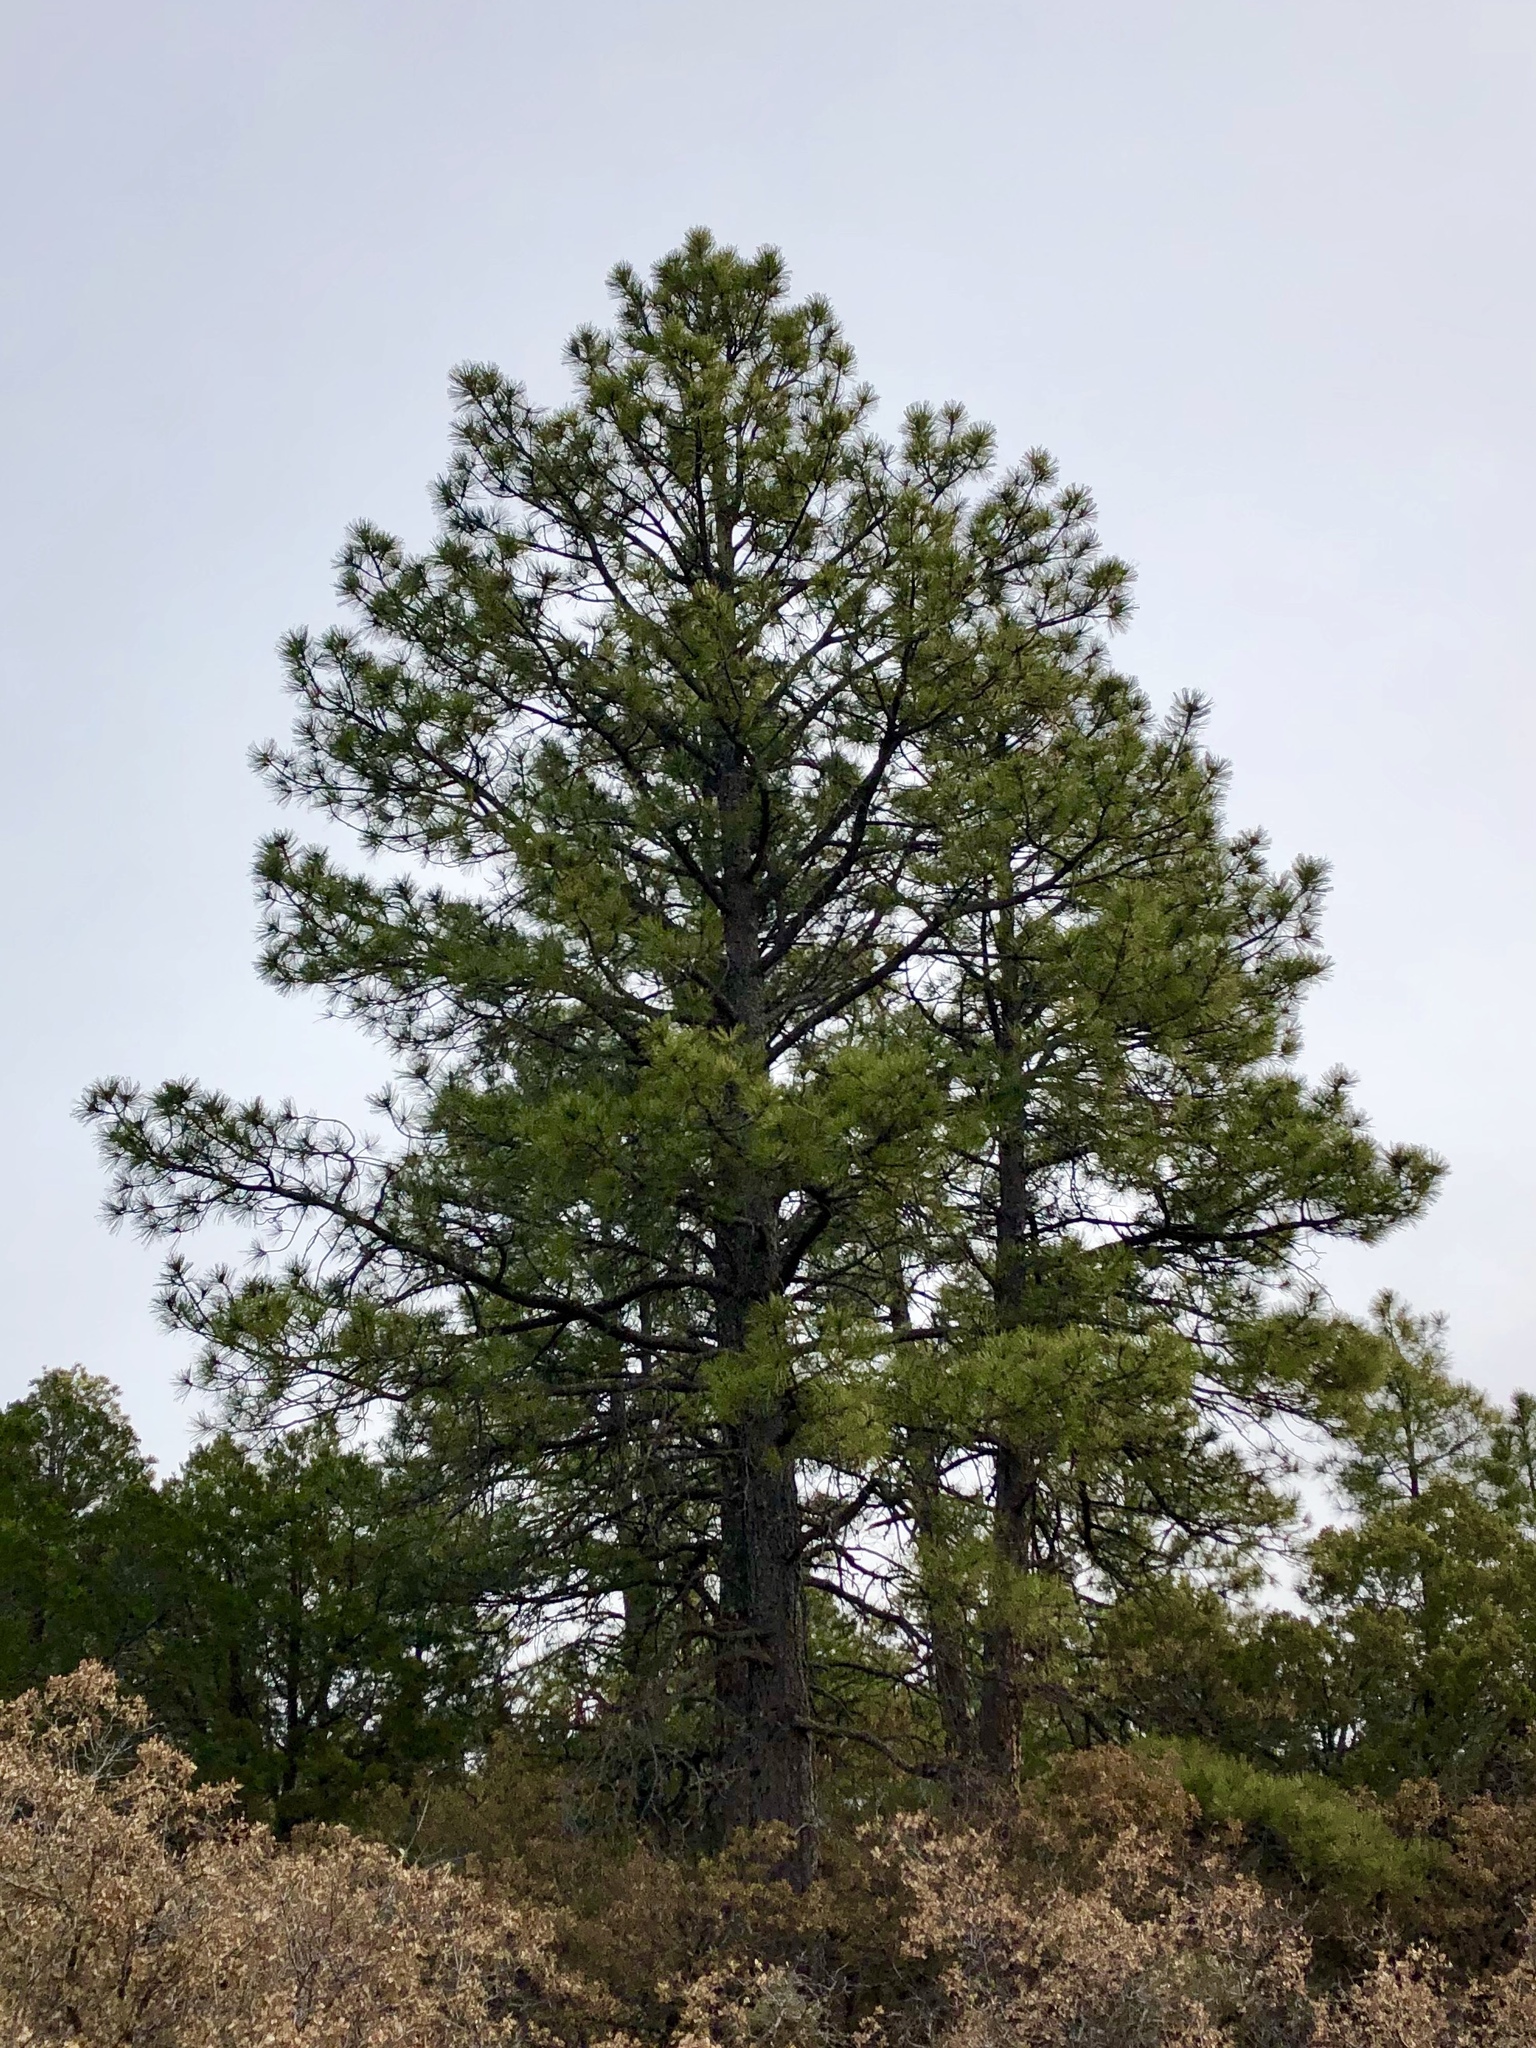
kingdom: Plantae
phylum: Tracheophyta
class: Pinopsida
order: Pinales
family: Pinaceae
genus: Pinus
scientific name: Pinus ponderosa
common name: Western yellow-pine
